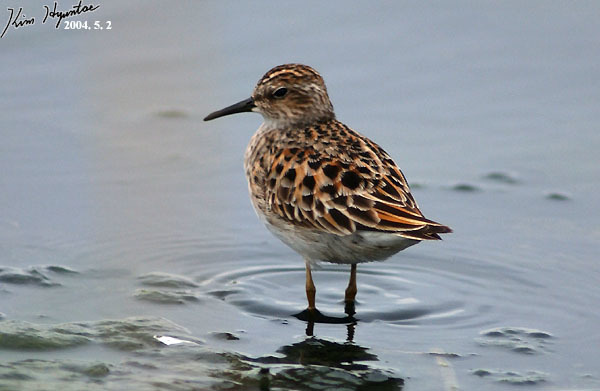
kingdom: Animalia
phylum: Chordata
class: Aves
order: Charadriiformes
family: Scolopacidae
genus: Calidris
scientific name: Calidris subminuta
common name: Long-toed stint
